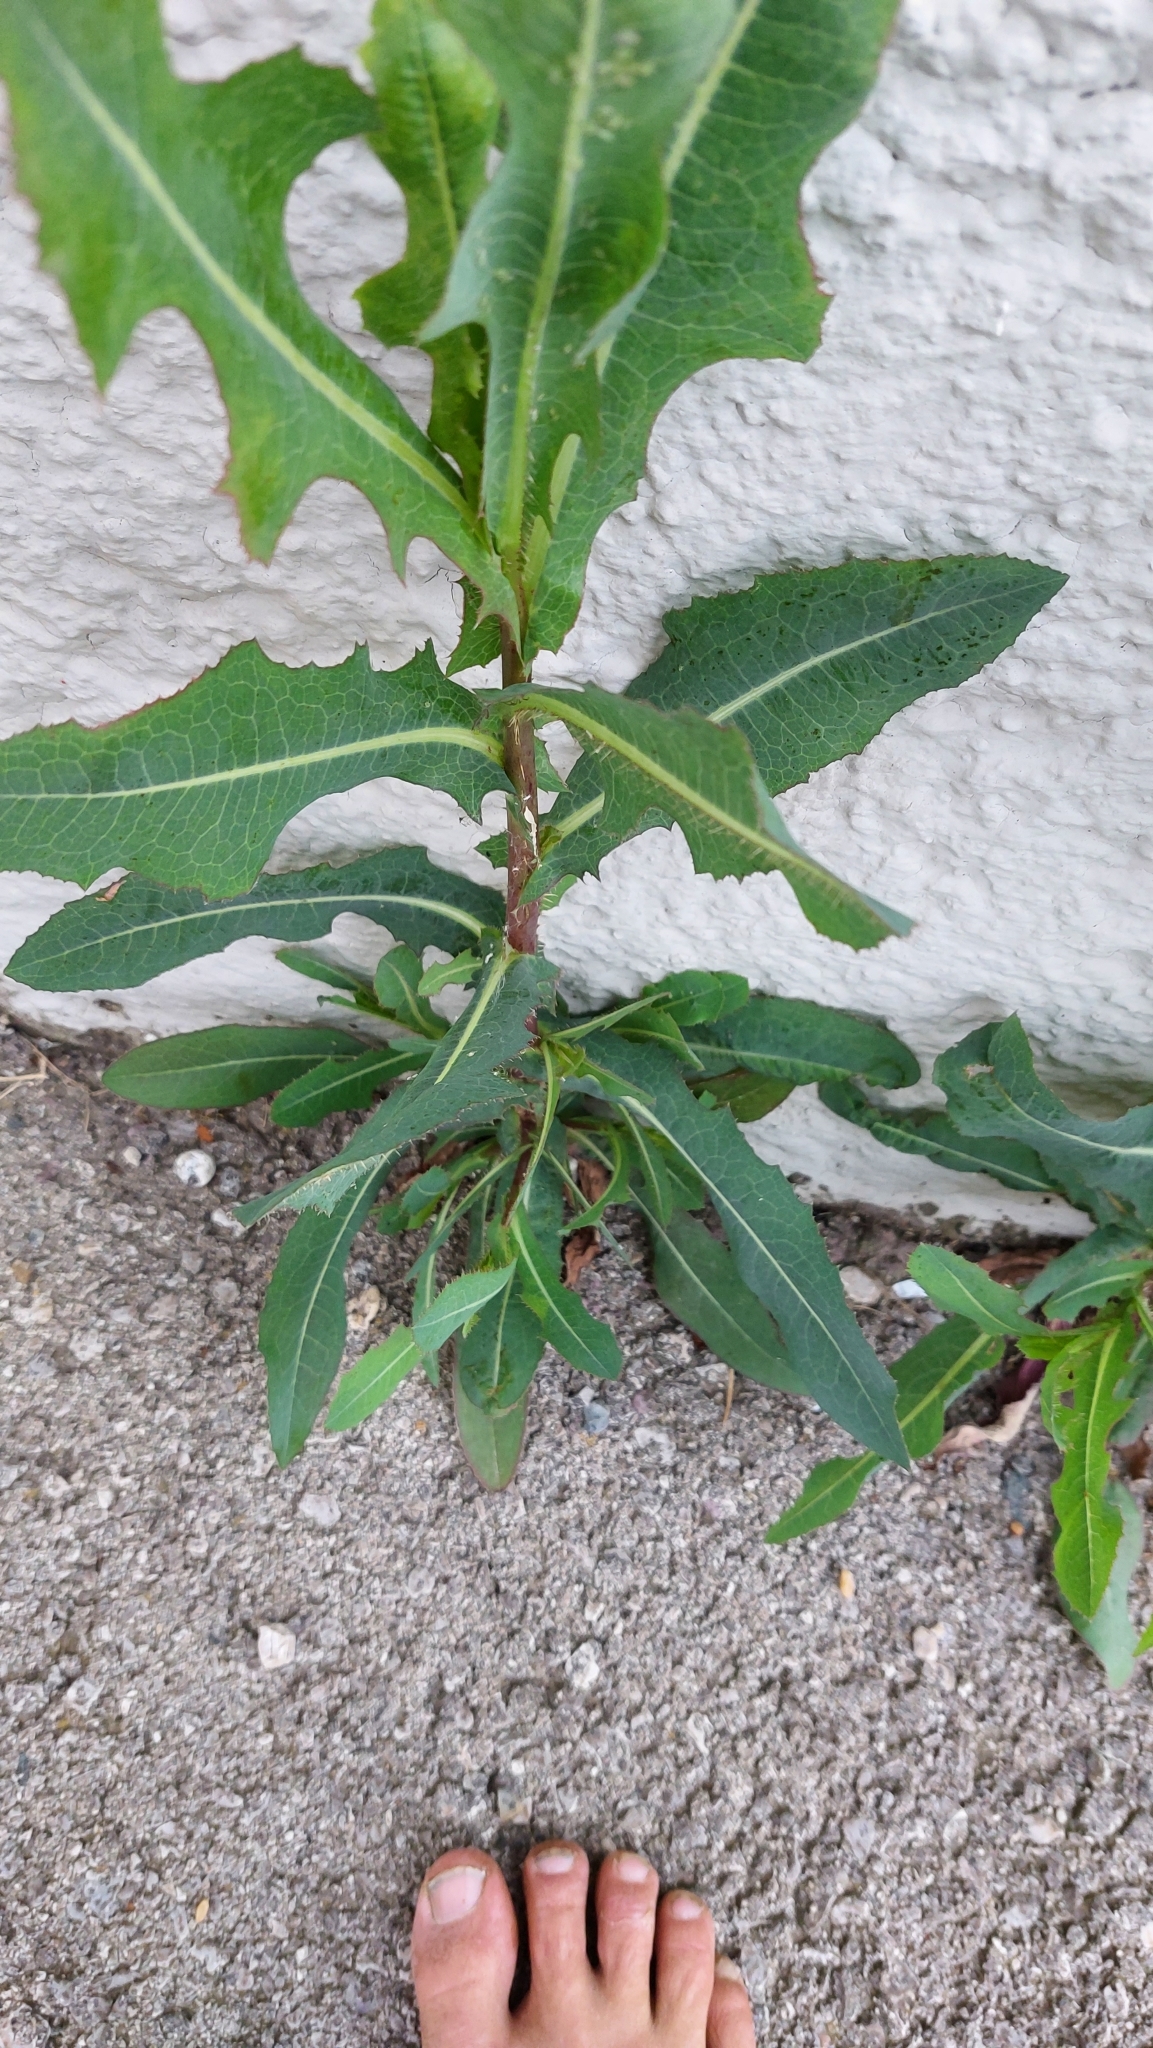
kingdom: Plantae
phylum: Tracheophyta
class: Magnoliopsida
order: Asterales
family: Asteraceae
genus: Lactuca
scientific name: Lactuca serriola
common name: Prickly lettuce
